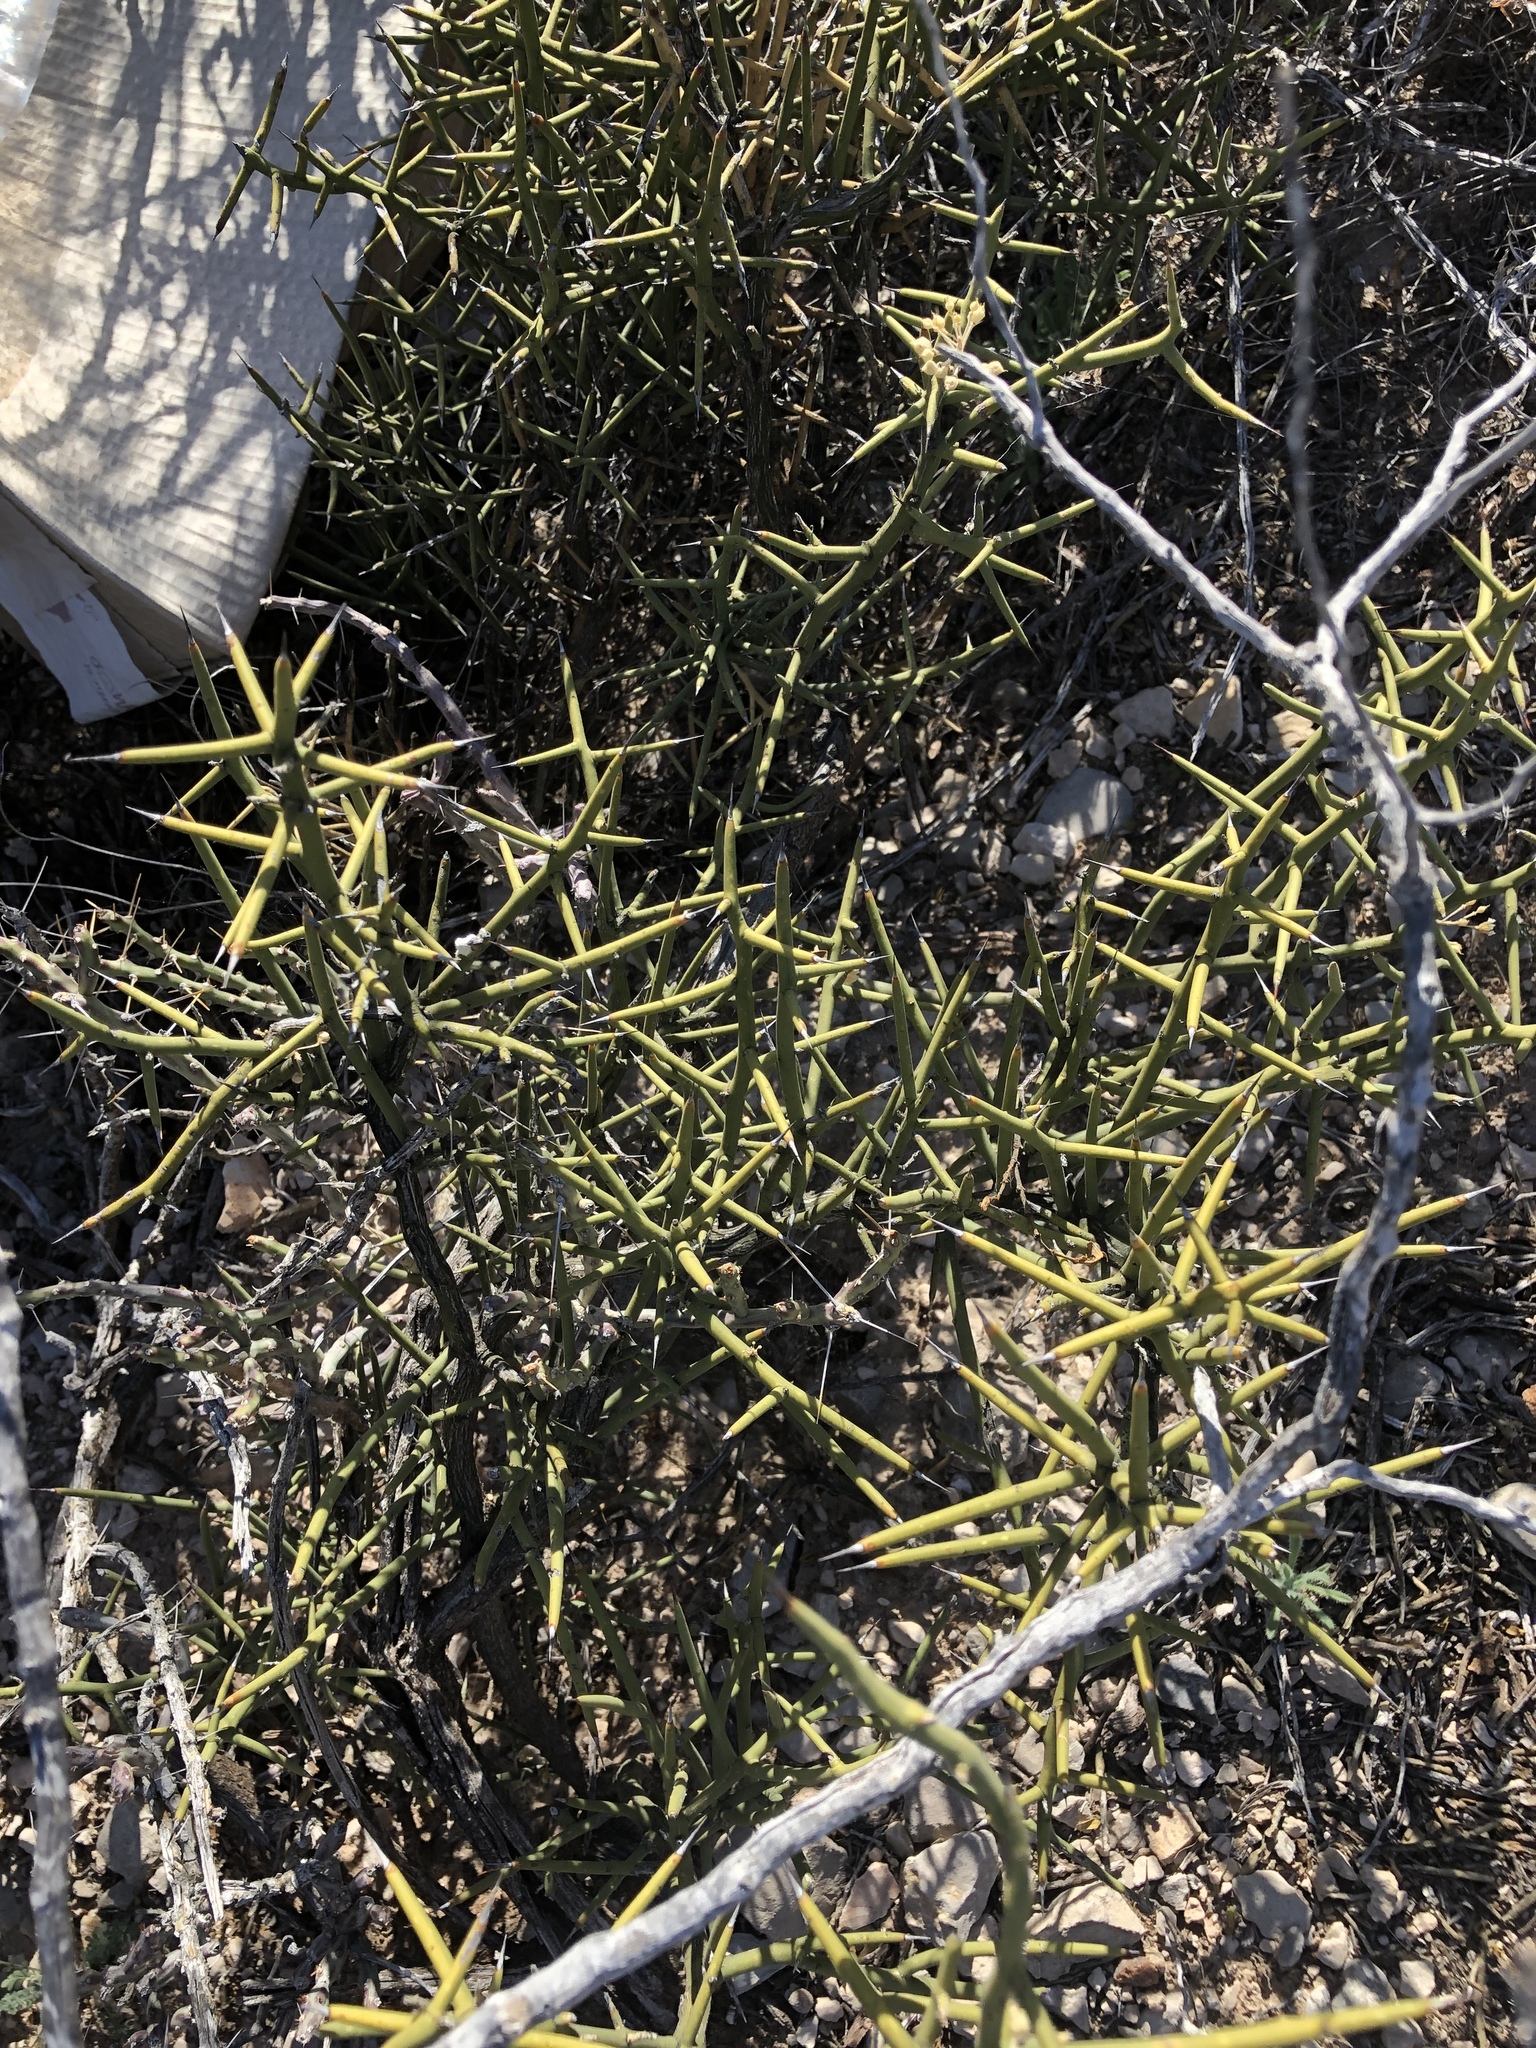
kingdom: Plantae
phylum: Tracheophyta
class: Magnoliopsida
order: Brassicales
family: Koeberliniaceae
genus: Koeberlinia
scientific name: Koeberlinia spinosa
